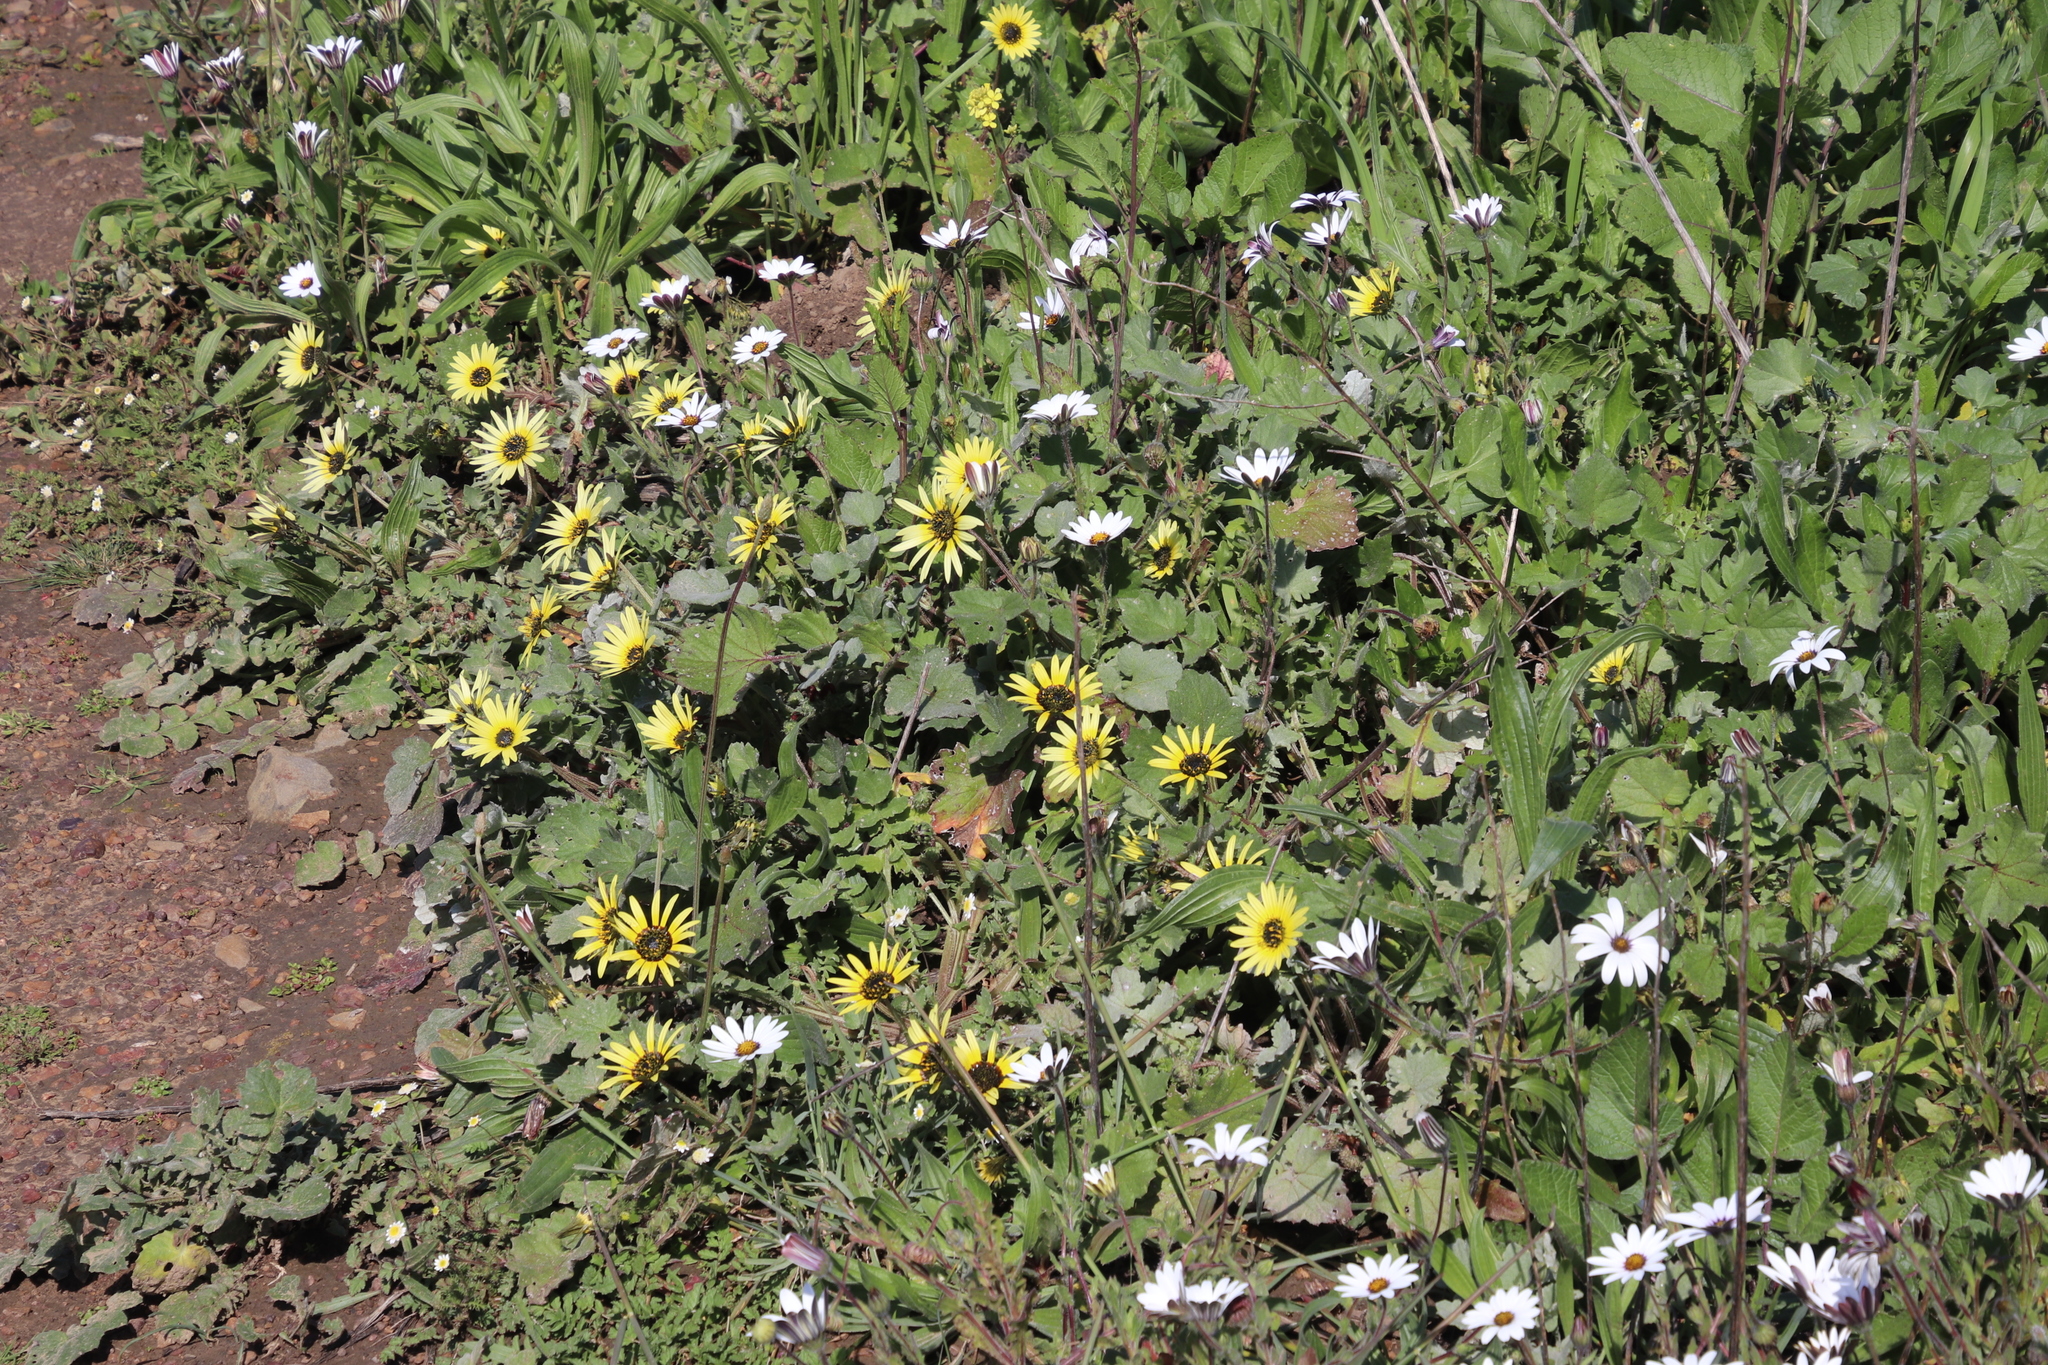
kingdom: Plantae
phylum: Tracheophyta
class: Magnoliopsida
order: Asterales
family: Asteraceae
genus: Arctotheca
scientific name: Arctotheca calendula
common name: Capeweed
